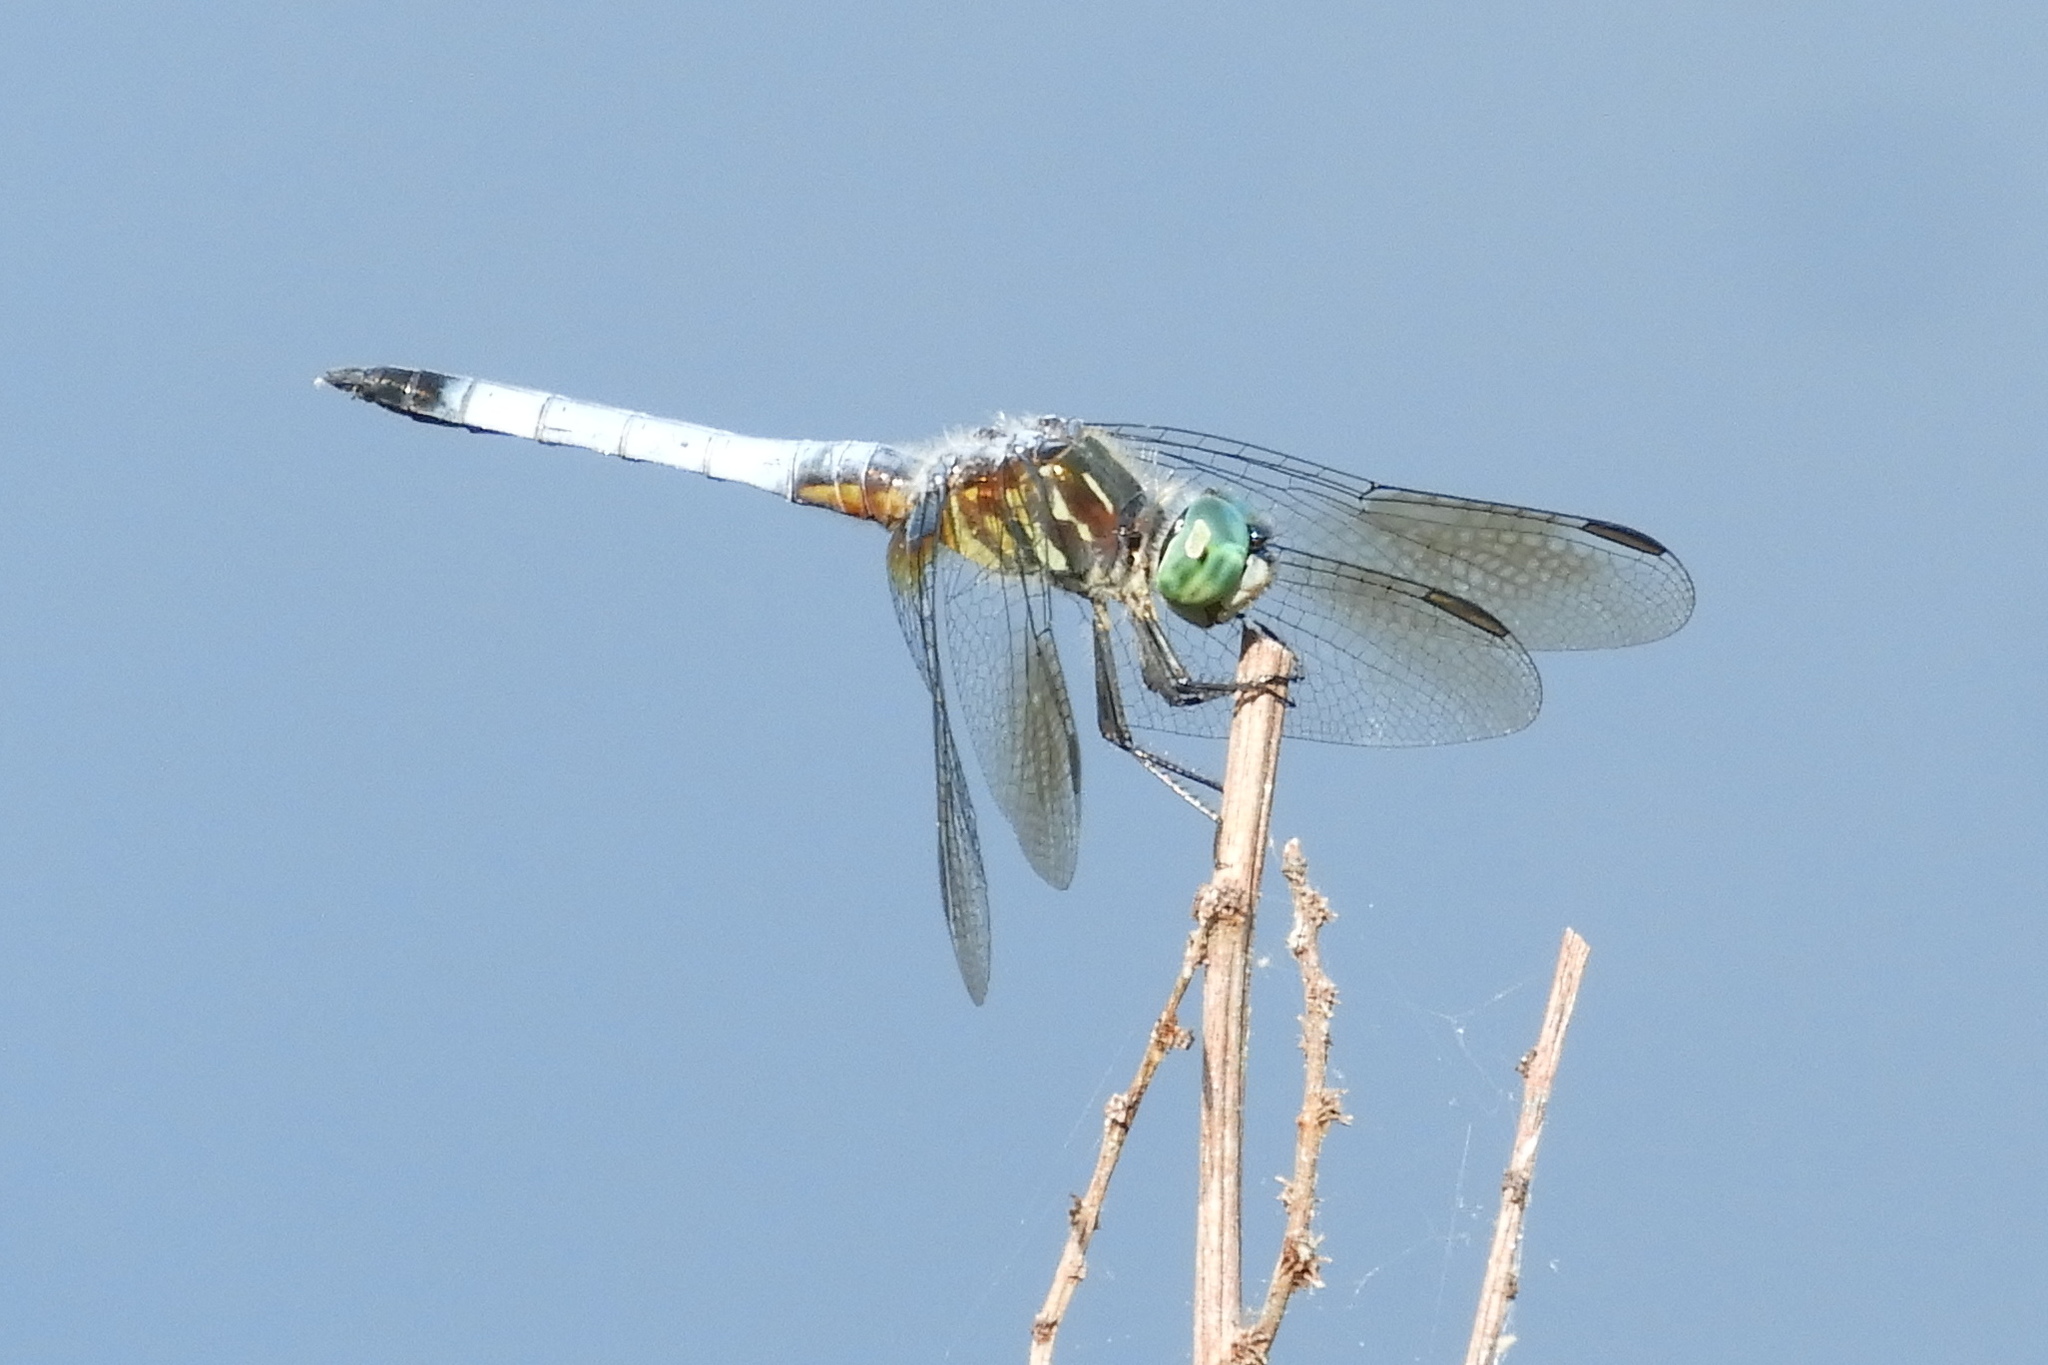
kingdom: Animalia
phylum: Arthropoda
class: Insecta
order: Odonata
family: Libellulidae
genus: Pachydiplax
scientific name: Pachydiplax longipennis
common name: Blue dasher
